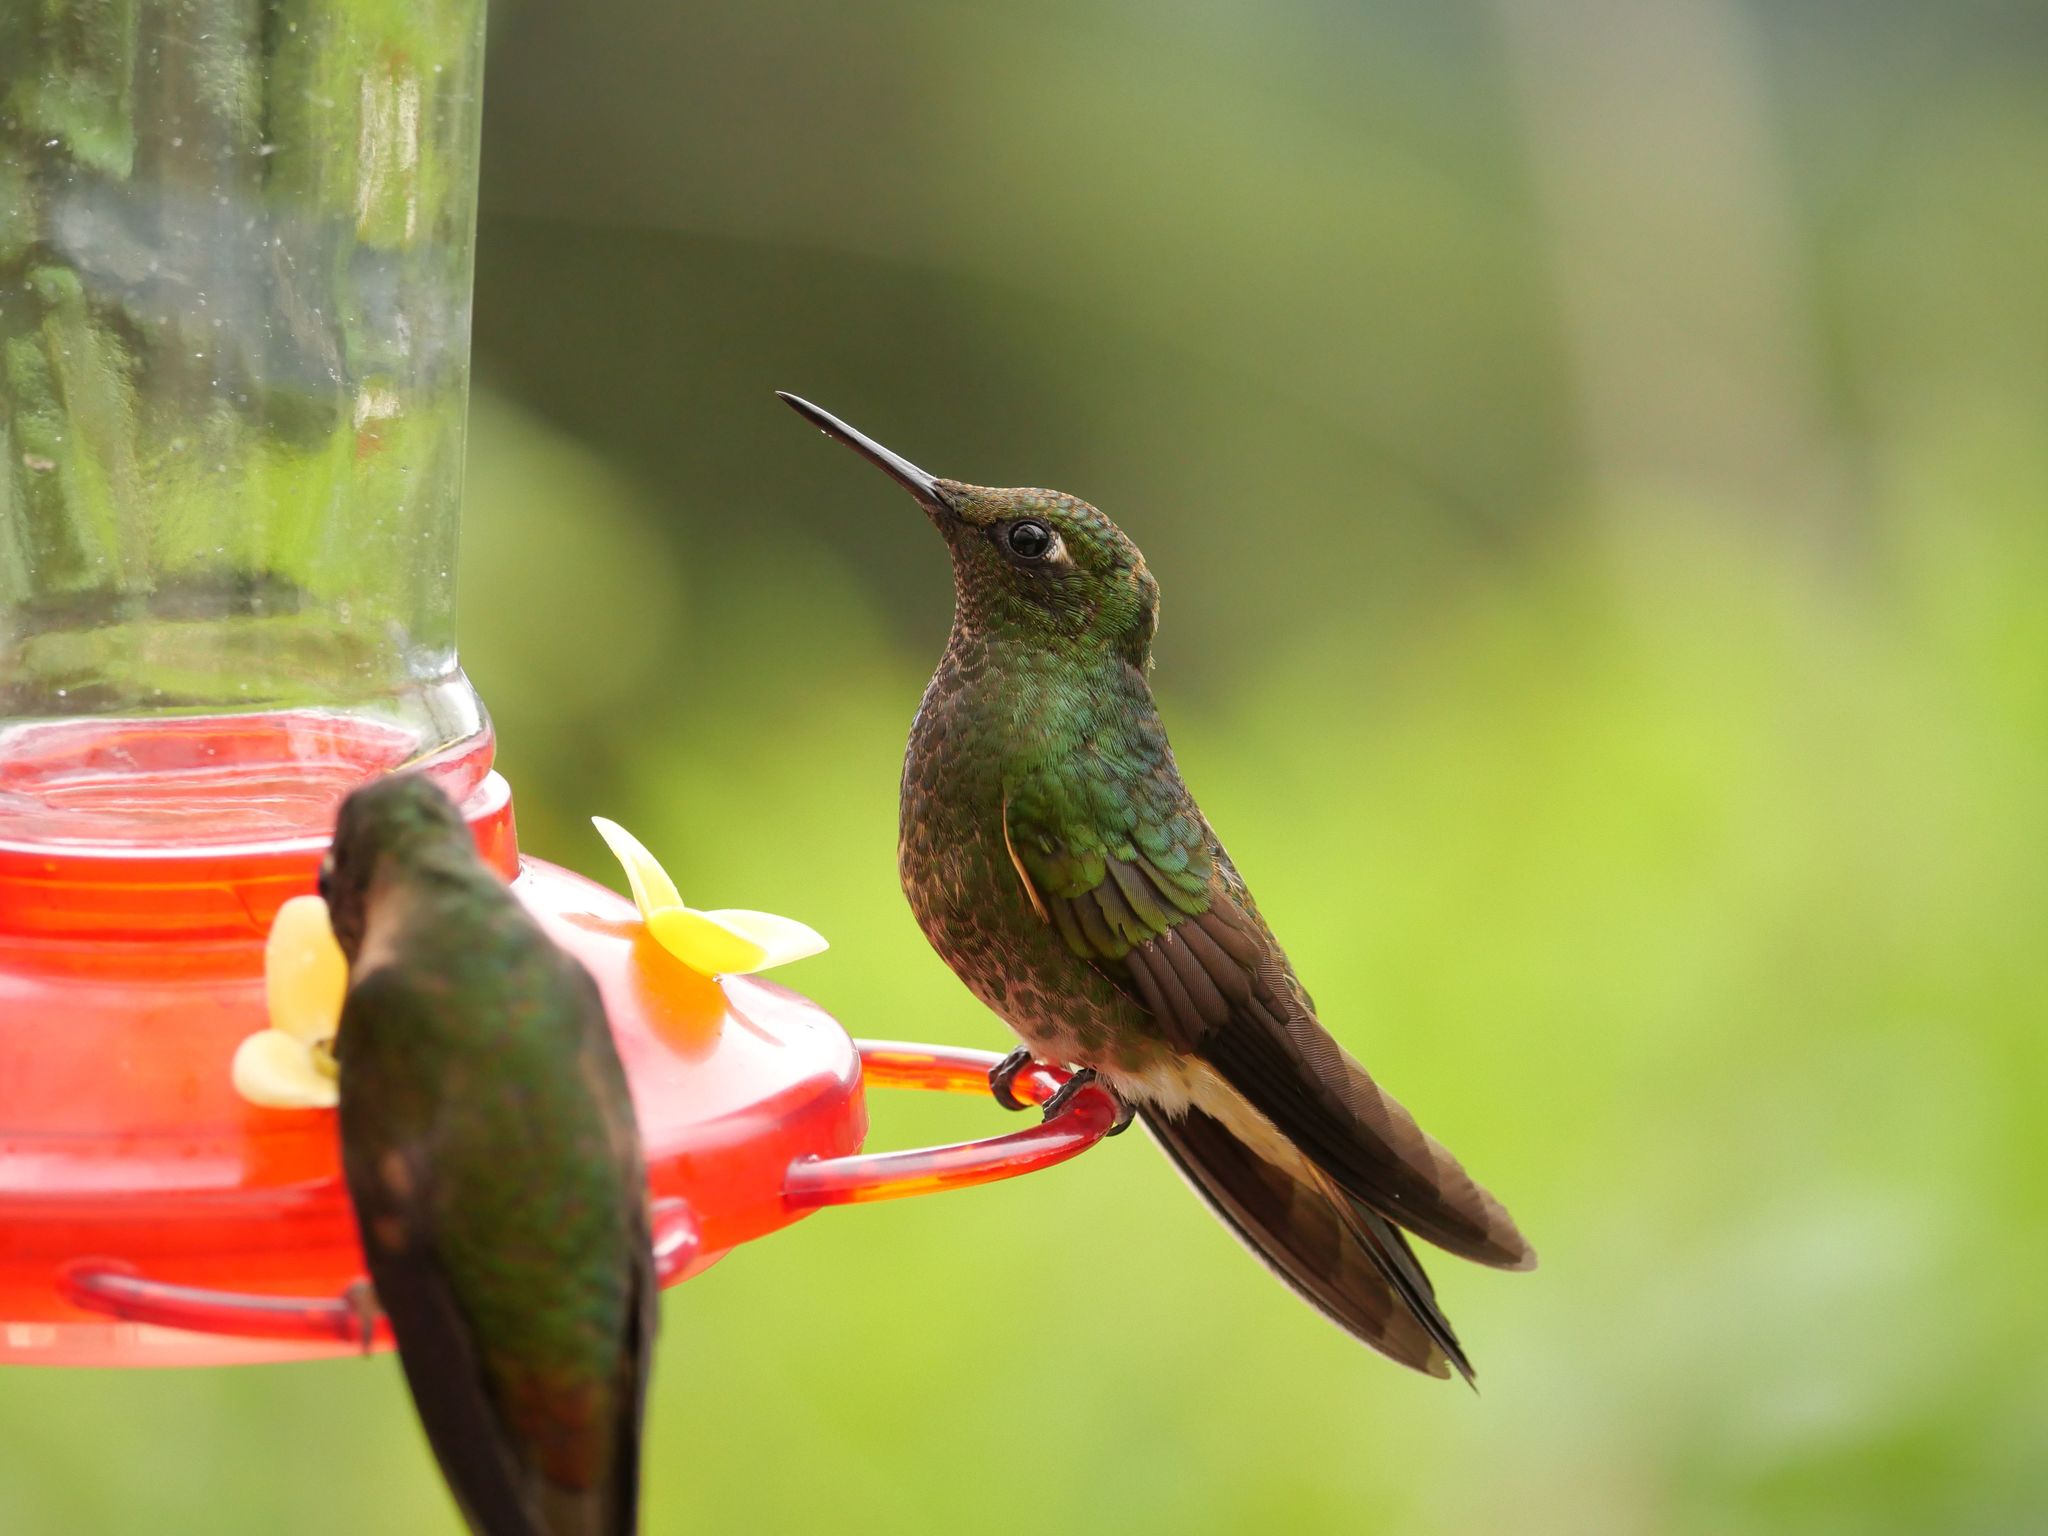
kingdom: Animalia
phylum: Chordata
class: Aves
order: Apodiformes
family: Trochilidae
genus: Heliodoxa
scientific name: Heliodoxa rubinoides
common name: Fawn-breasted brilliant
